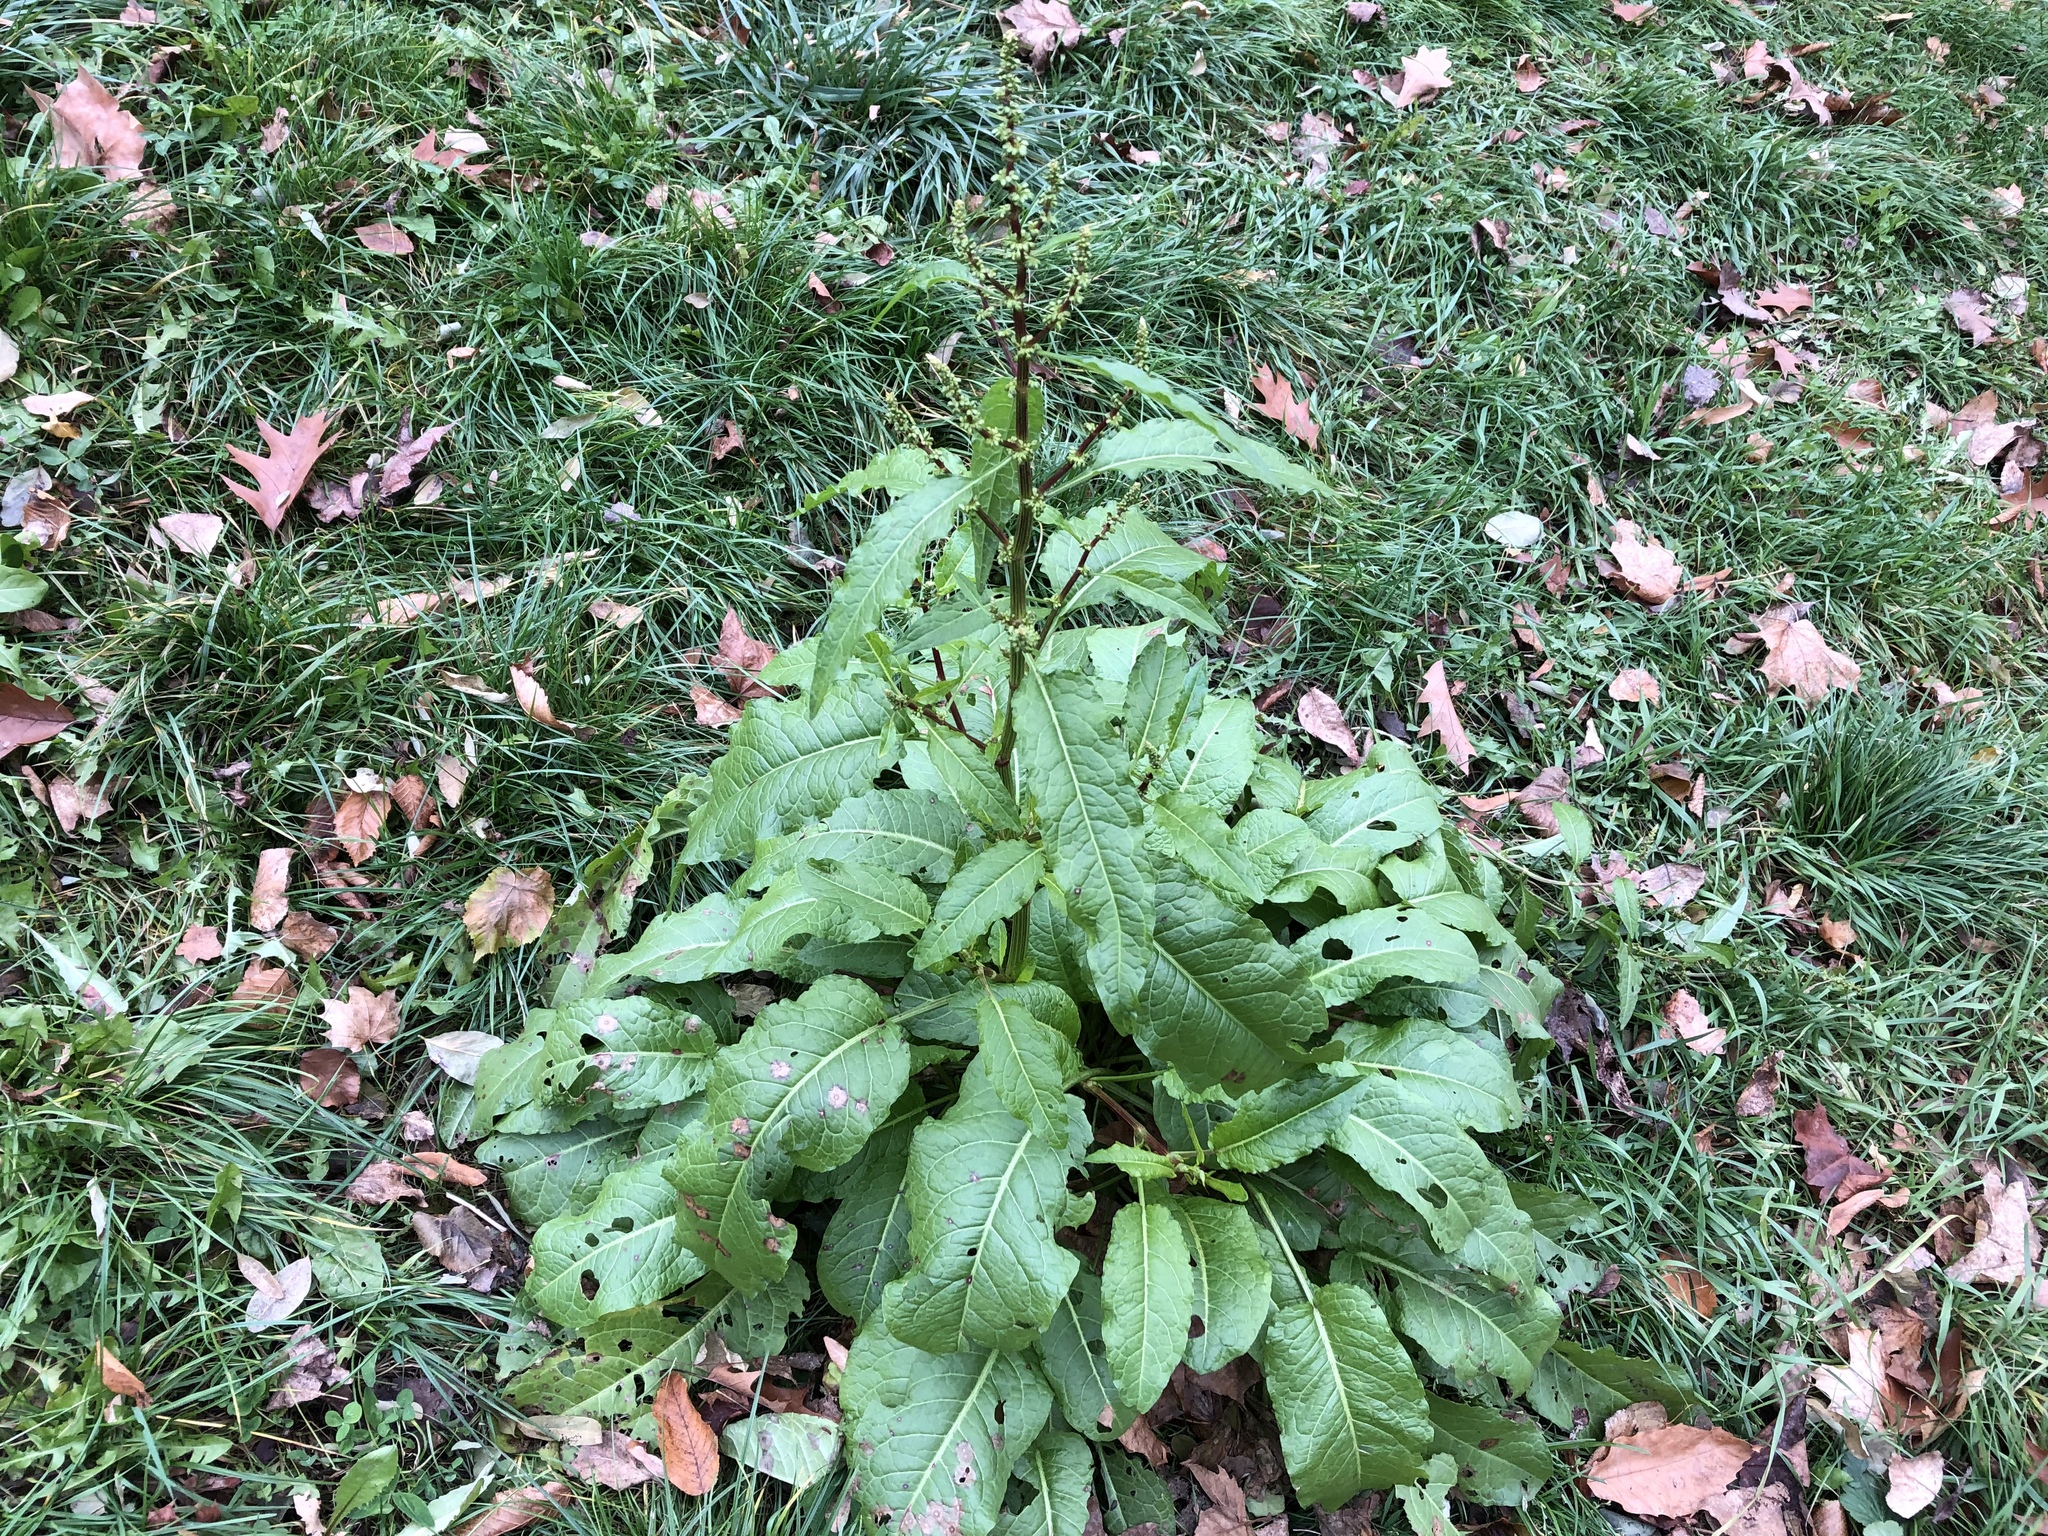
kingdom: Plantae
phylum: Tracheophyta
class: Magnoliopsida
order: Caryophyllales
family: Polygonaceae
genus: Rumex
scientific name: Rumex obtusifolius
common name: Bitter dock
